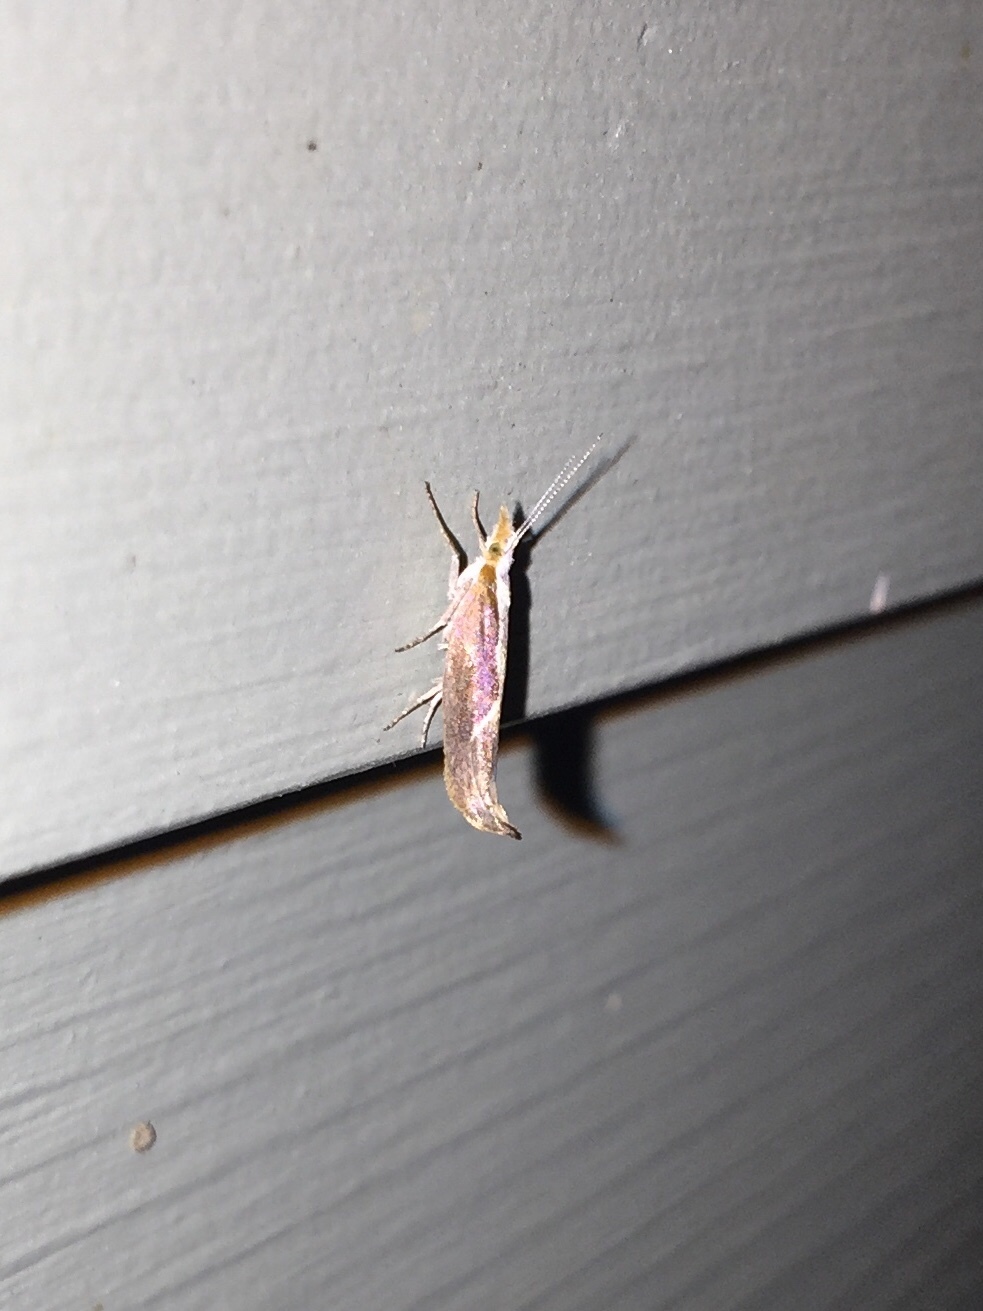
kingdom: Animalia
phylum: Arthropoda
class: Insecta
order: Lepidoptera
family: Ypsolophidae
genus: Ypsolopha
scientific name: Ypsolopha dentella
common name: Honeysuckle moth
